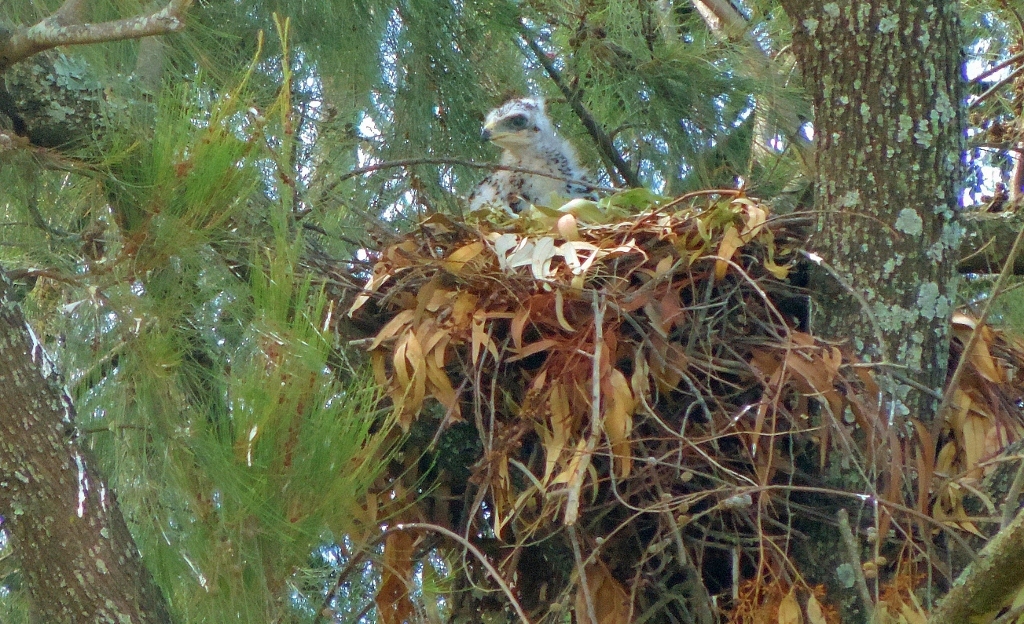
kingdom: Animalia
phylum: Chordata
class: Aves
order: Accipitriformes
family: Accipitridae
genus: Lophaetus
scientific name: Lophaetus occipitalis
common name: Long-crested eagle
